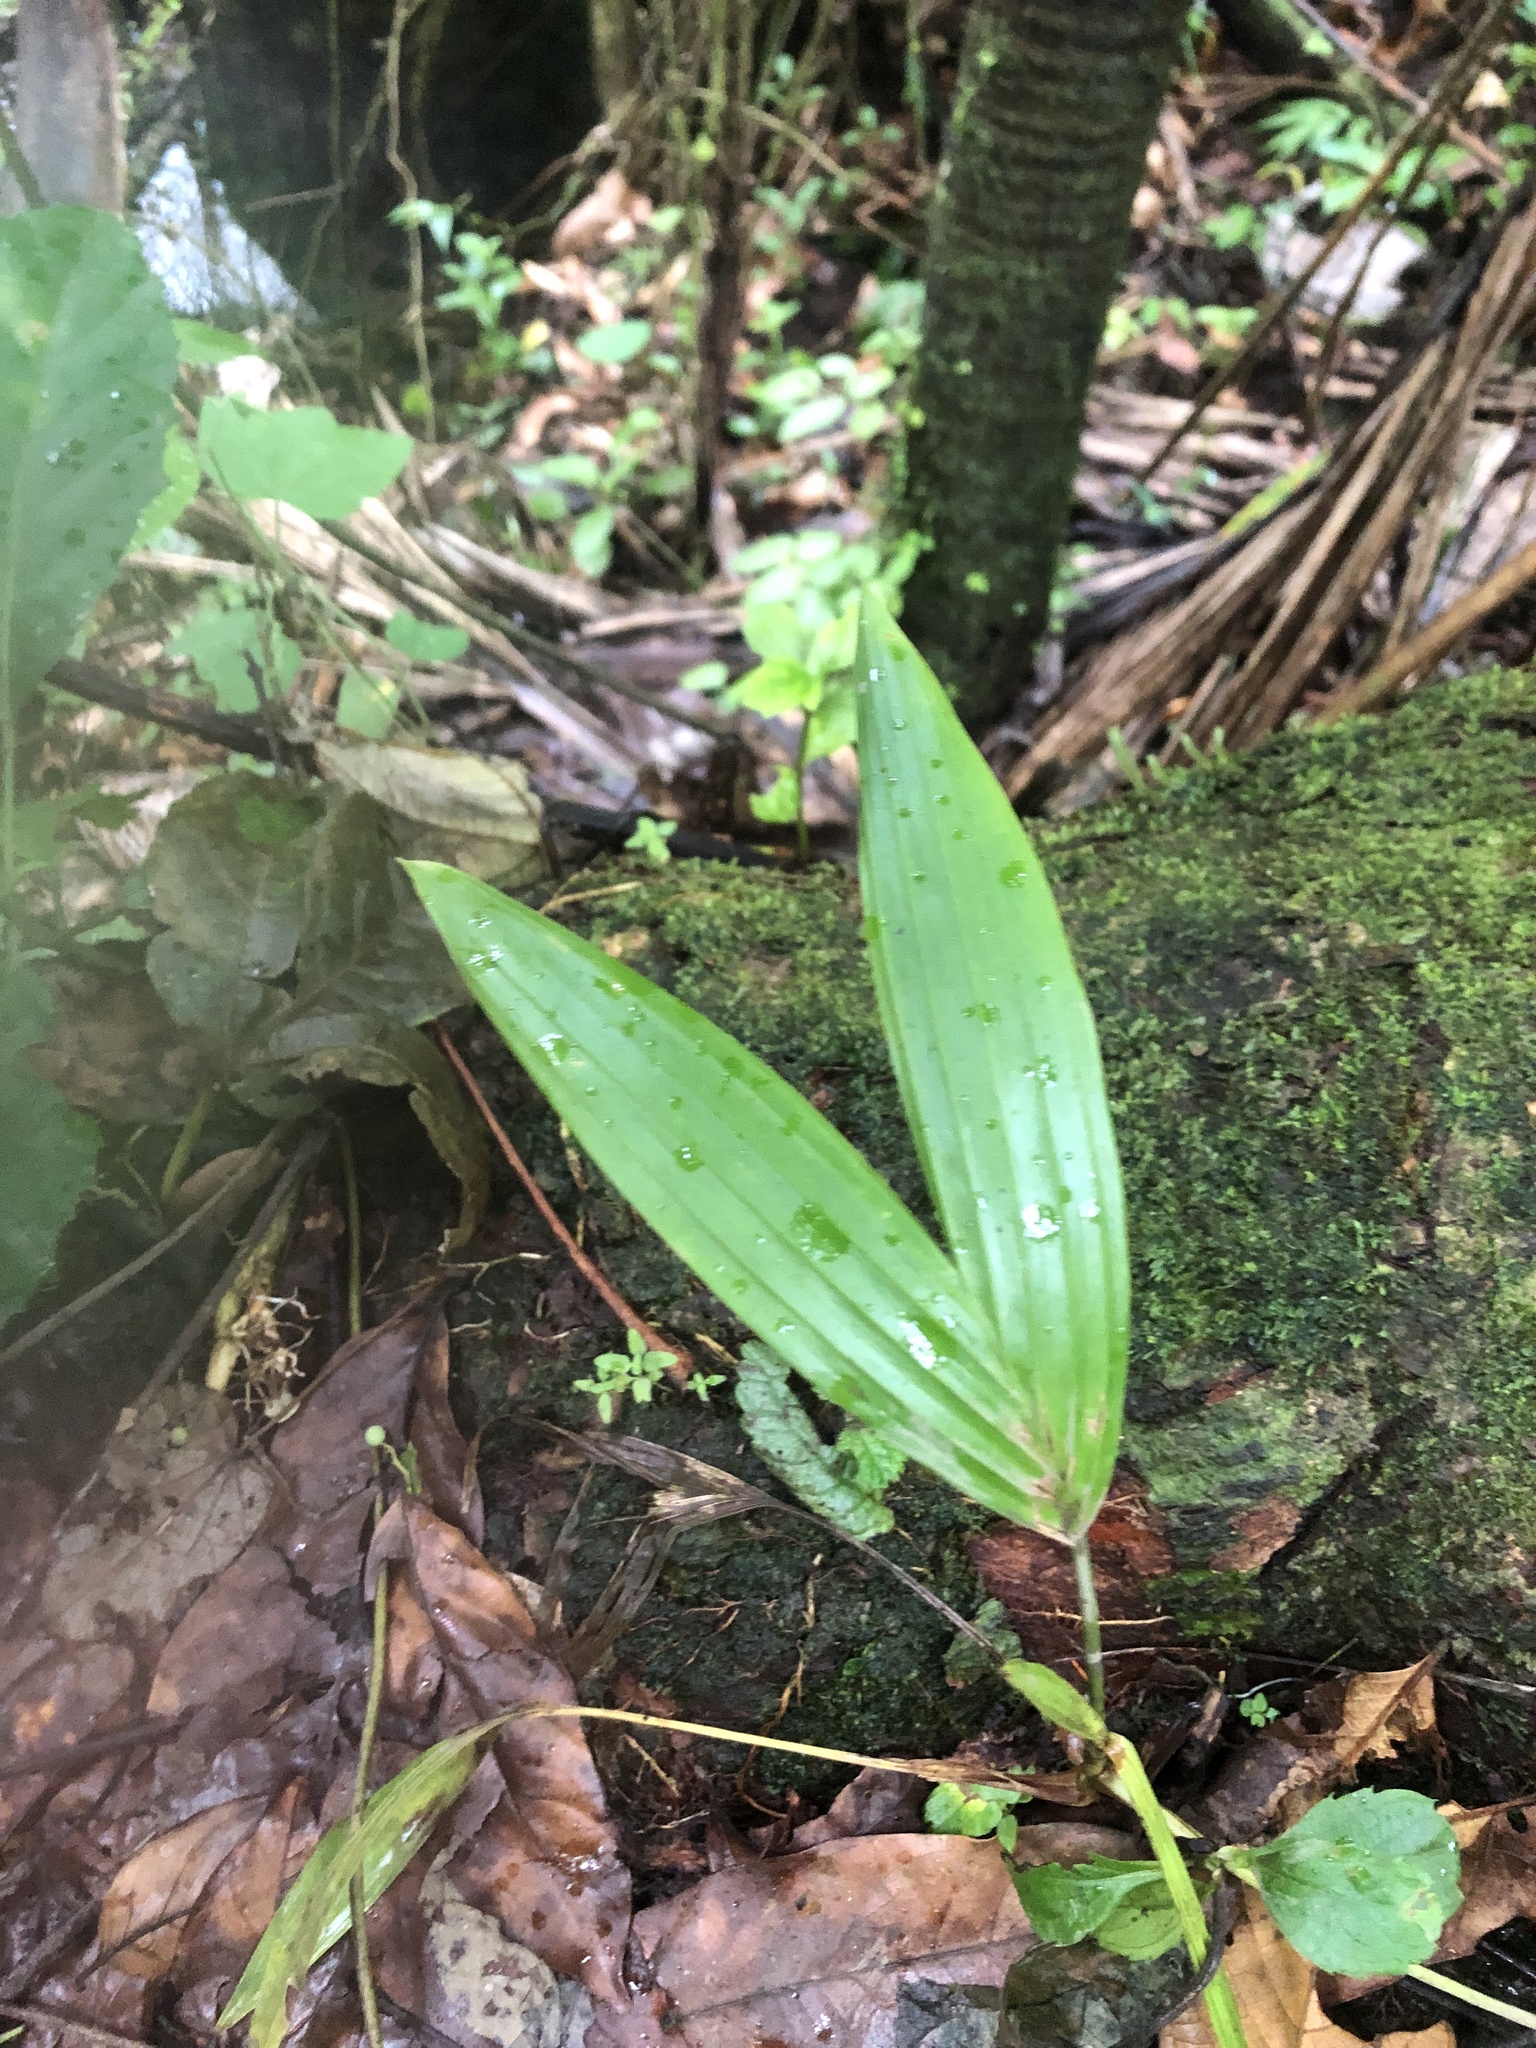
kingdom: Plantae
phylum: Tracheophyta
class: Liliopsida
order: Arecales
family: Arecaceae
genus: Prestoea
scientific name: Prestoea acuminata
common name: Sierran palm
